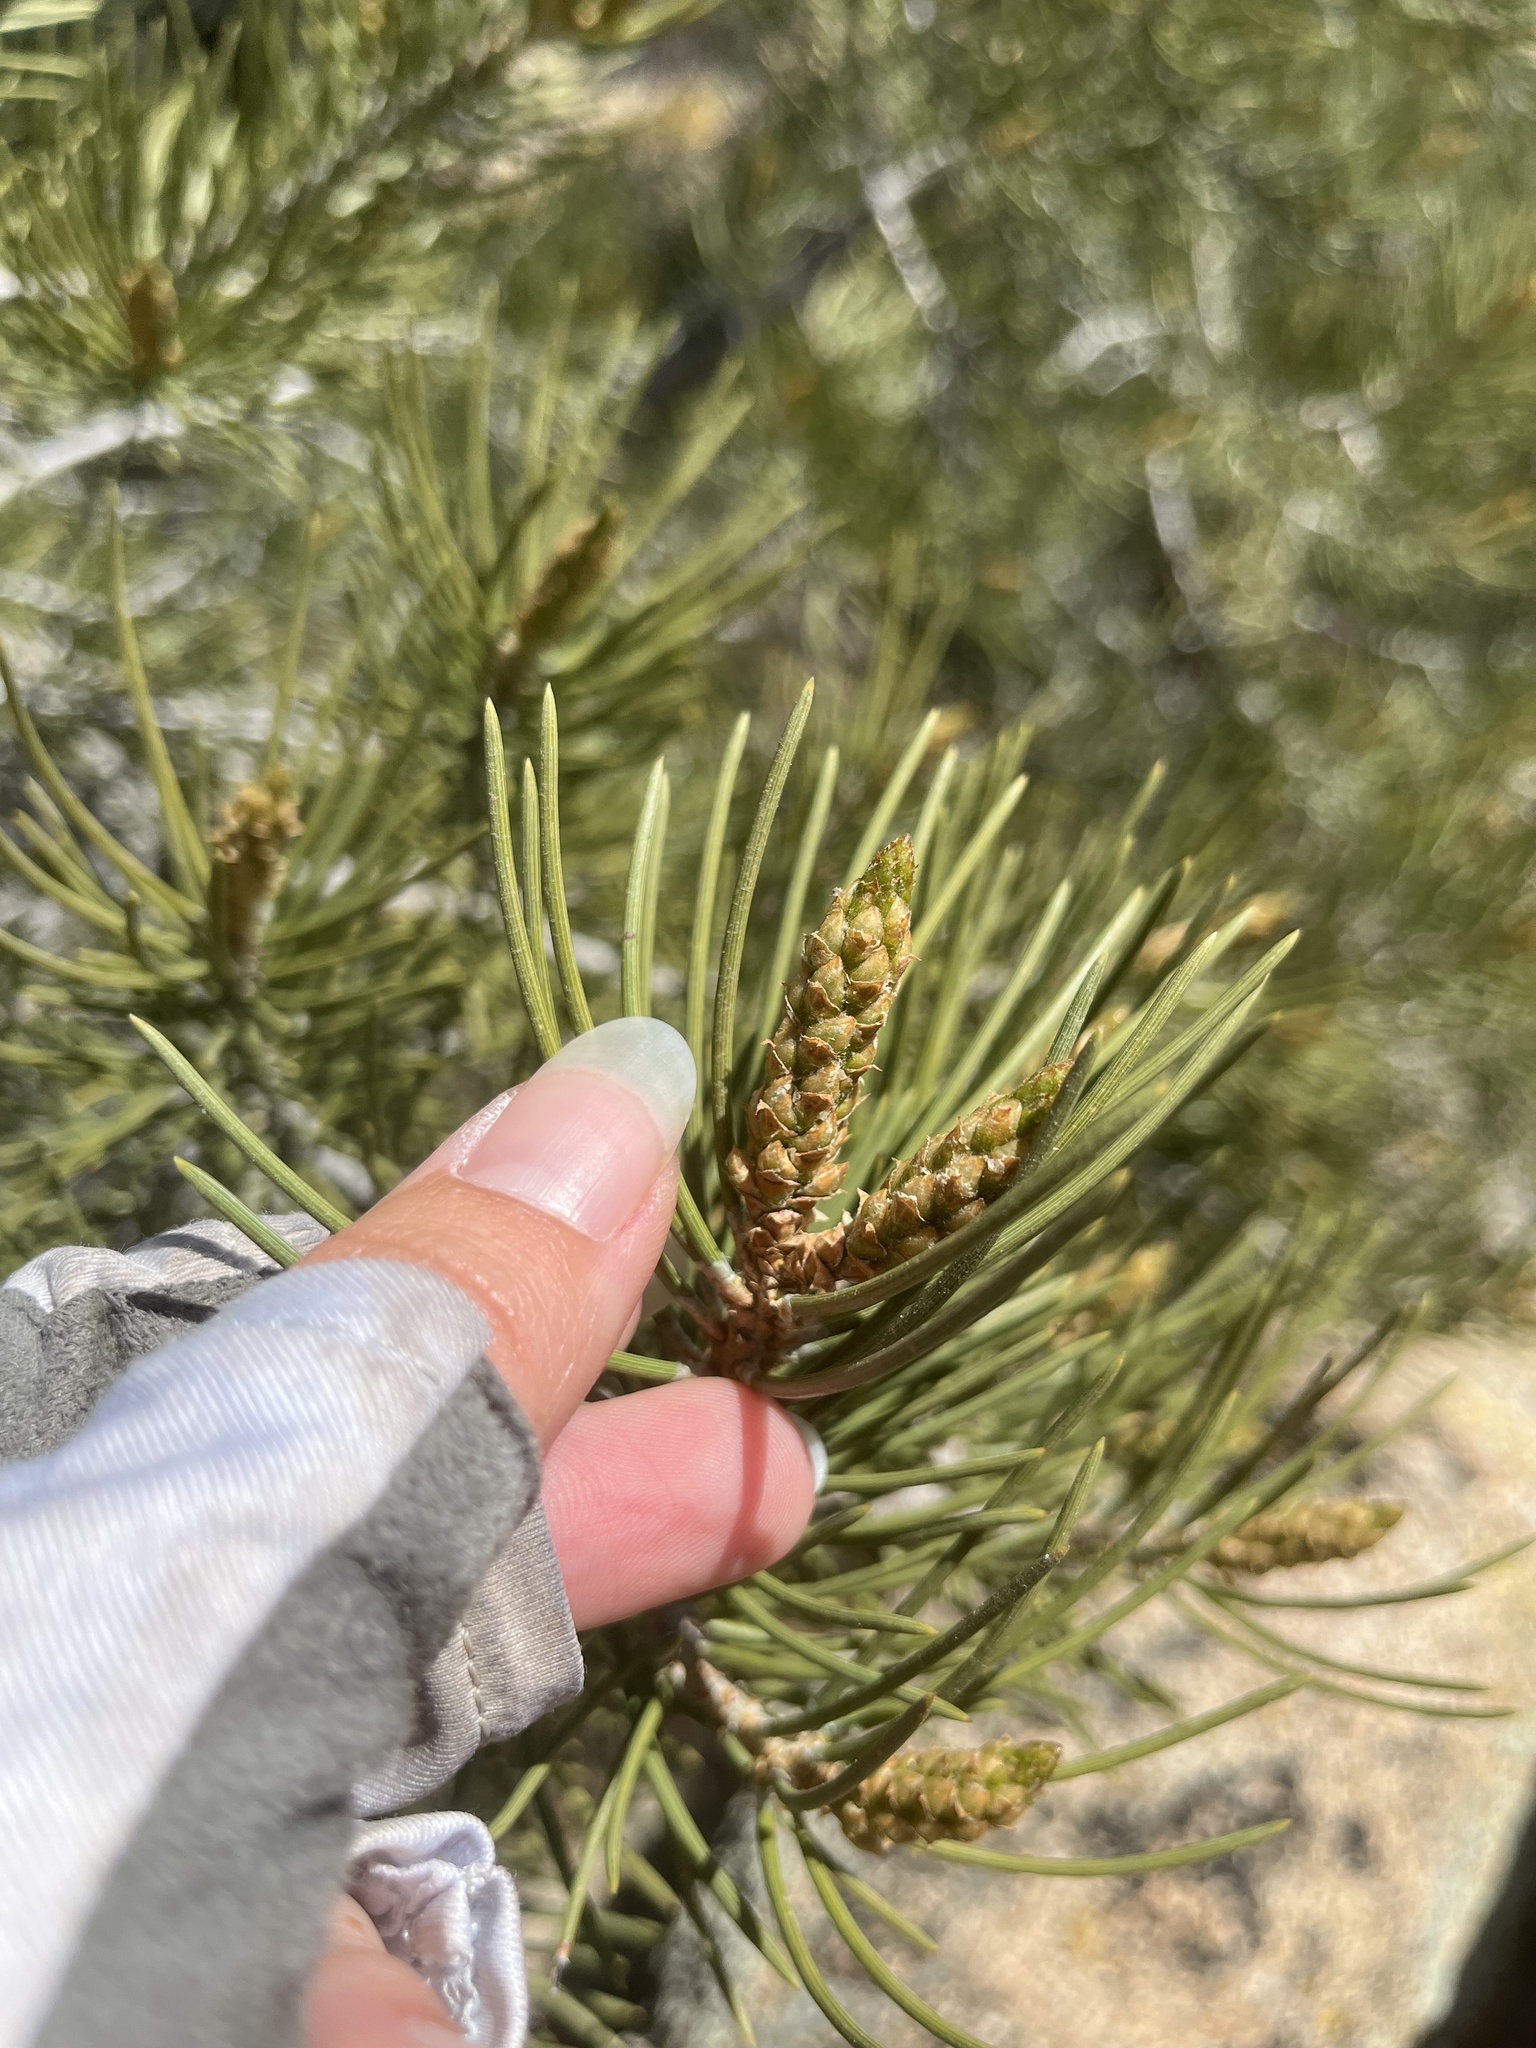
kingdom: Plantae
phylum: Tracheophyta
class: Pinopsida
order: Pinales
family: Pinaceae
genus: Pinus
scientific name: Pinus monophylla
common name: One-leaved nut pine
